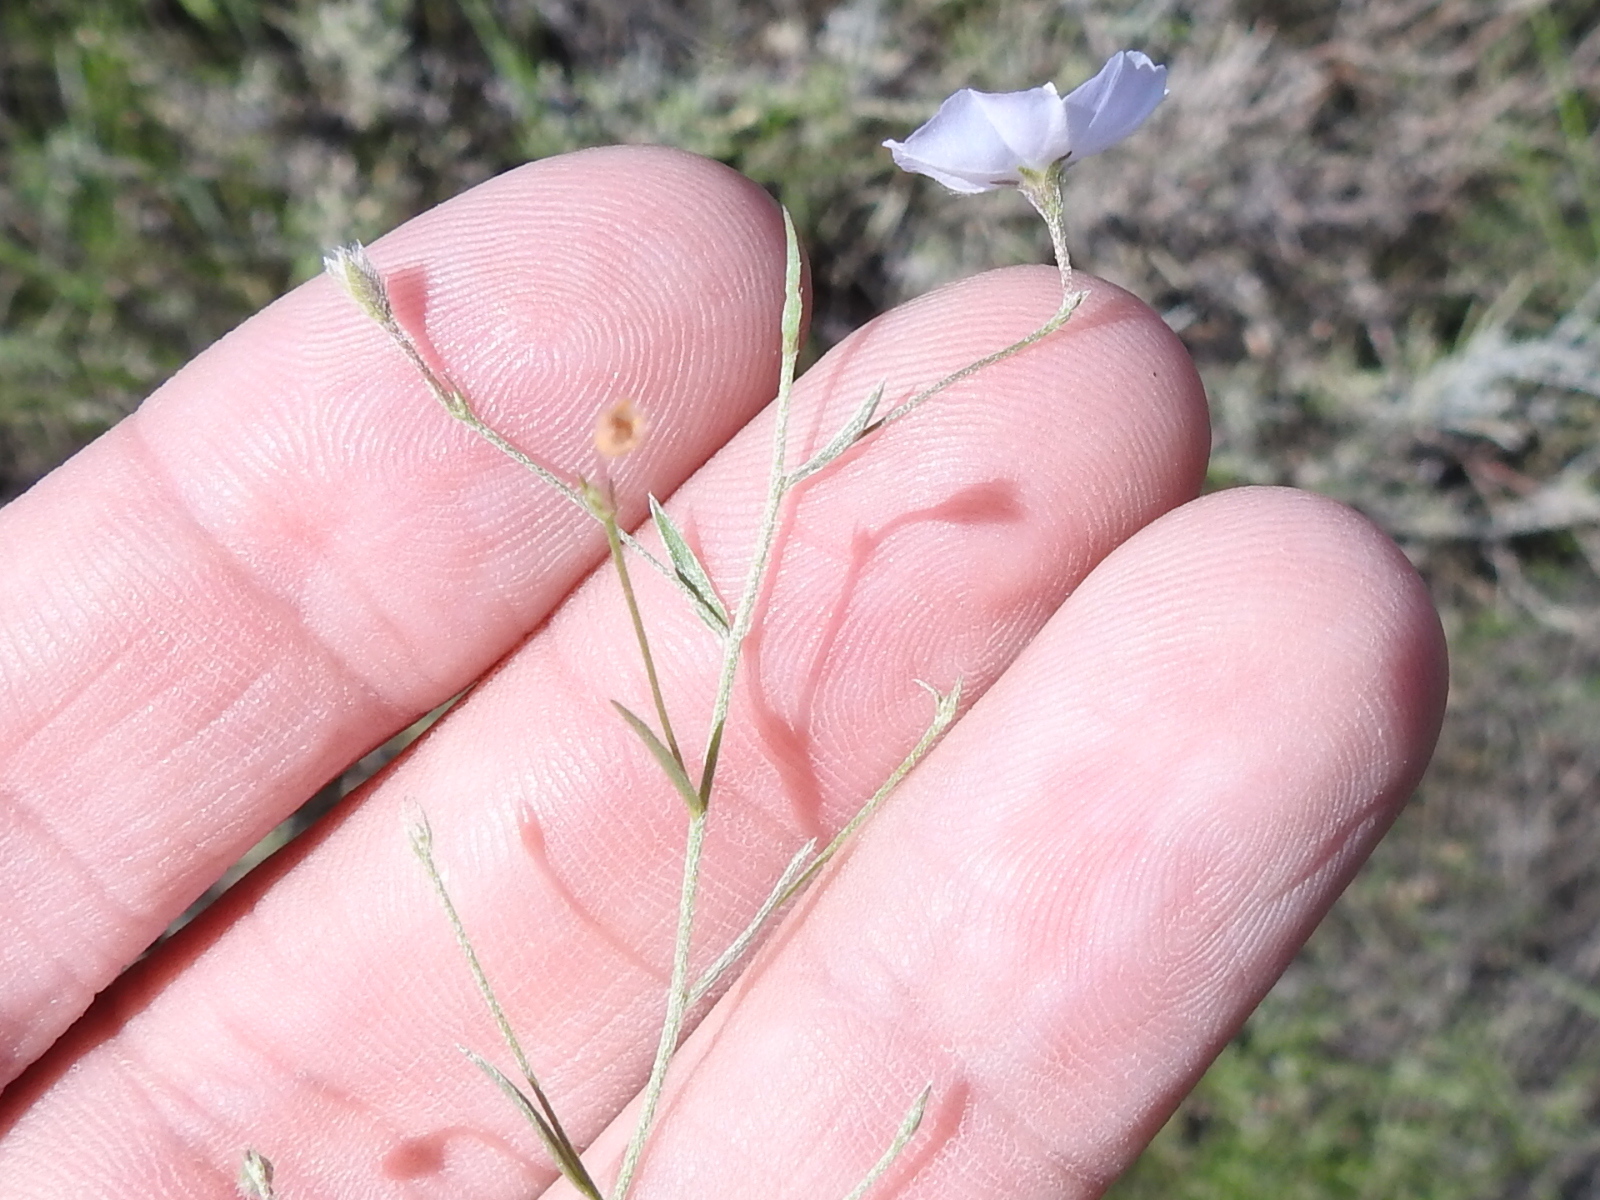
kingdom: Plantae
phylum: Tracheophyta
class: Magnoliopsida
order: Solanales
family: Convolvulaceae
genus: Evolvulus
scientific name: Evolvulus arizonicus
